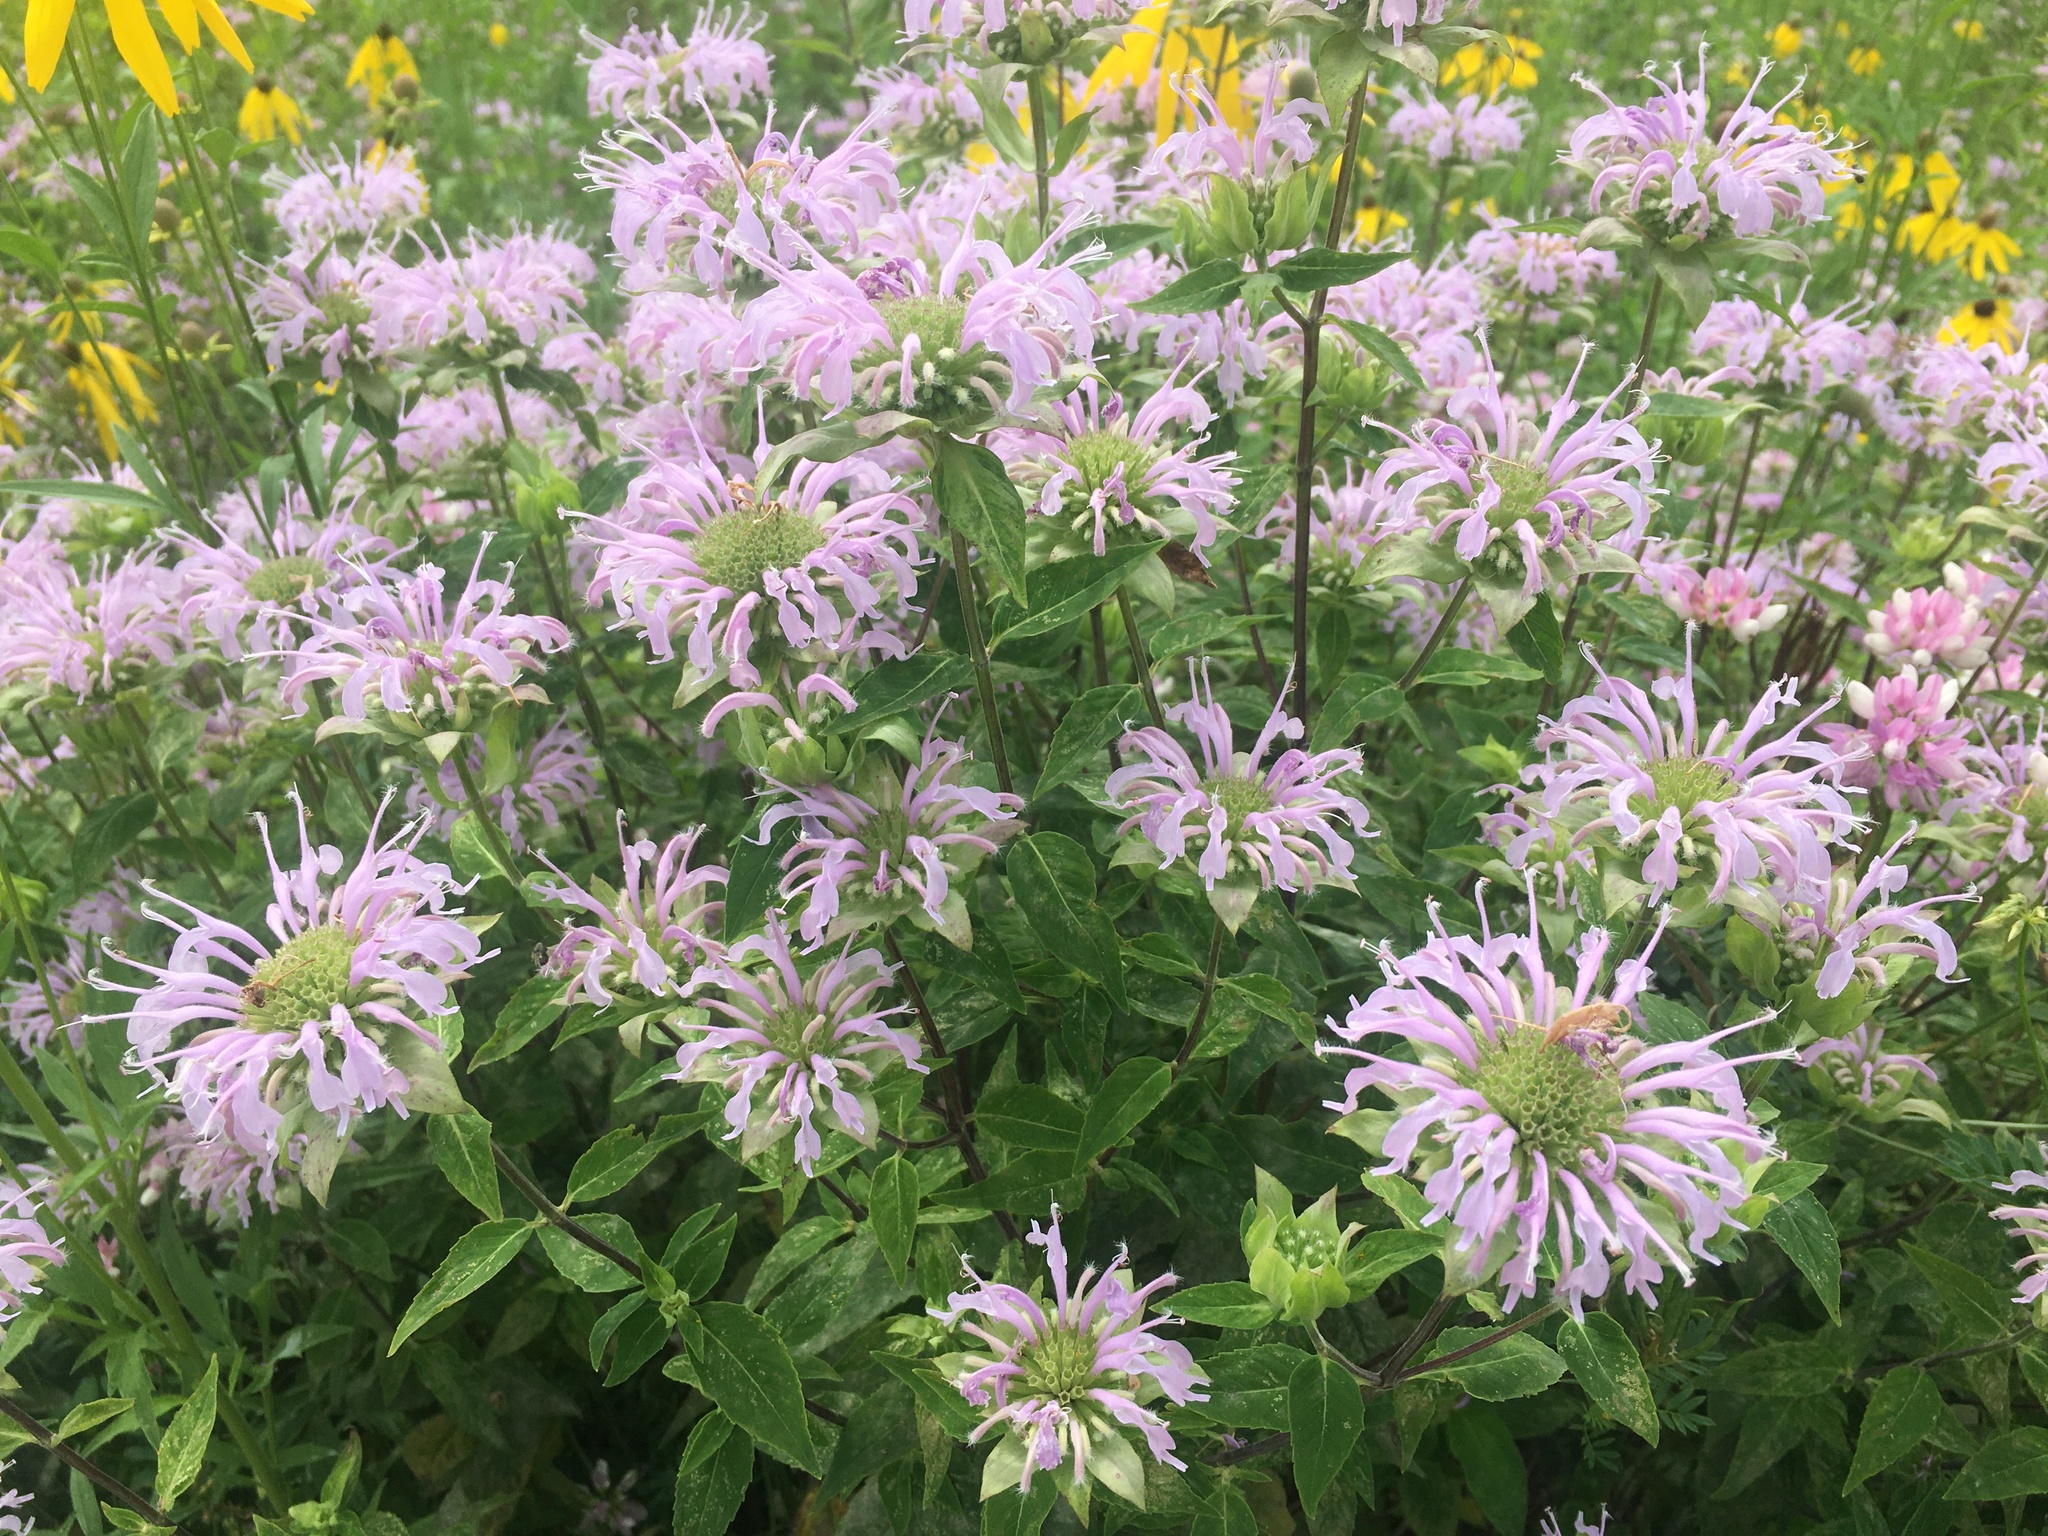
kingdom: Plantae
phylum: Tracheophyta
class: Magnoliopsida
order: Lamiales
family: Lamiaceae
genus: Monarda
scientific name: Monarda fistulosa
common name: Purple beebalm
